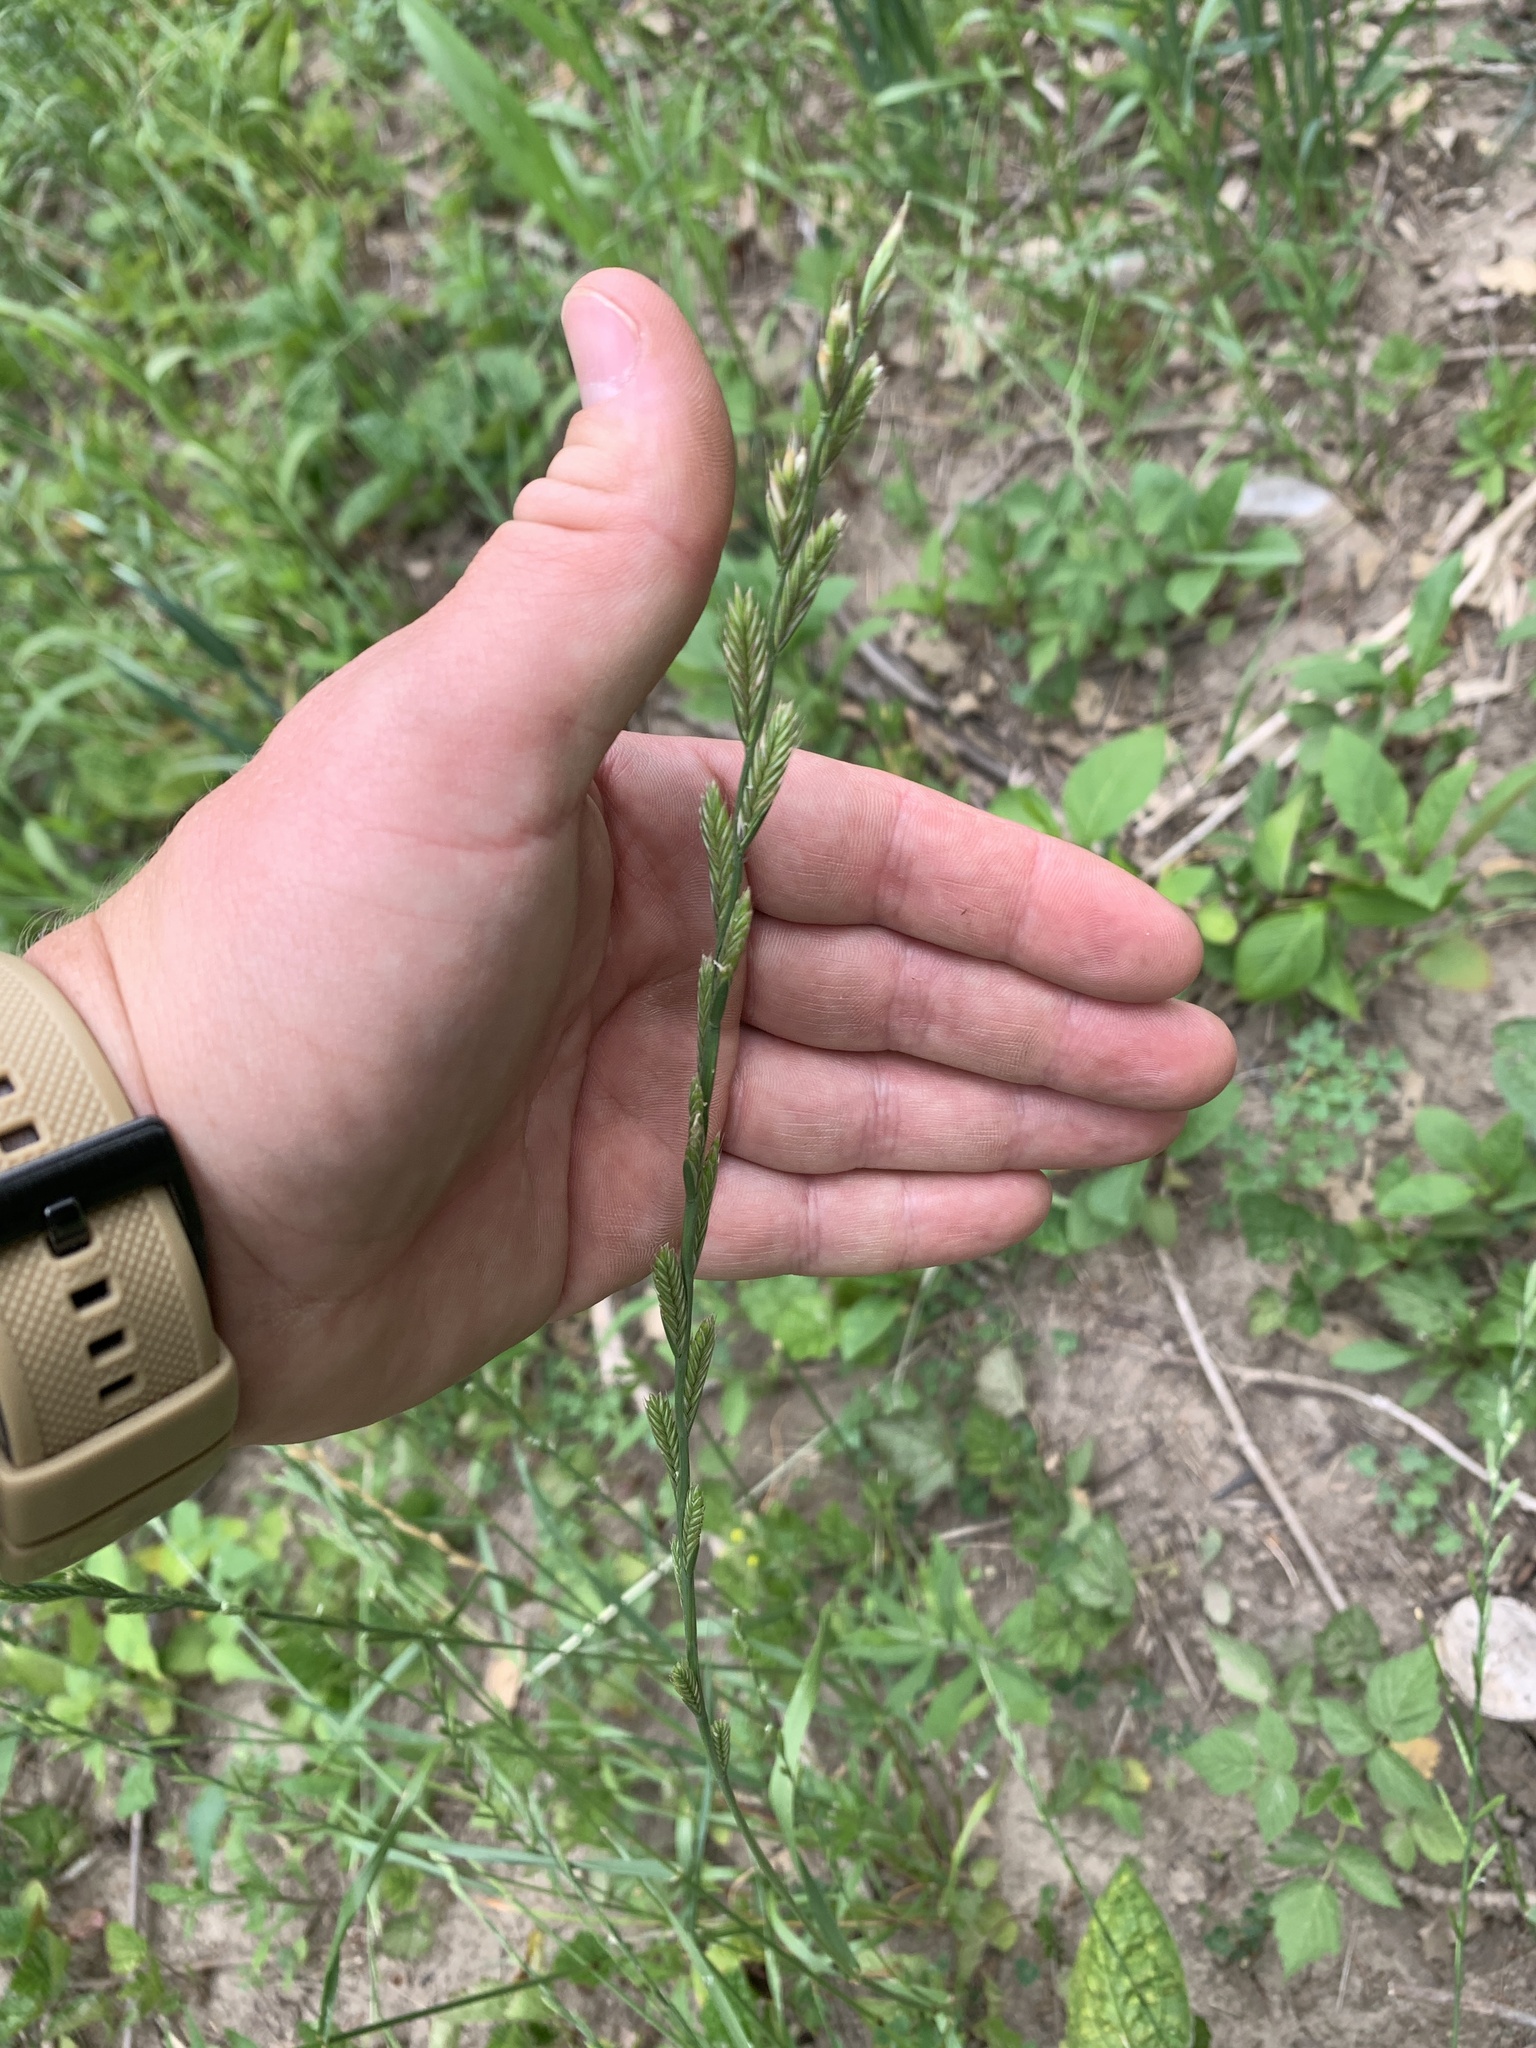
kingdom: Plantae
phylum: Tracheophyta
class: Liliopsida
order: Poales
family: Poaceae
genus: Lolium
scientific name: Lolium perenne
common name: Perennial ryegrass
